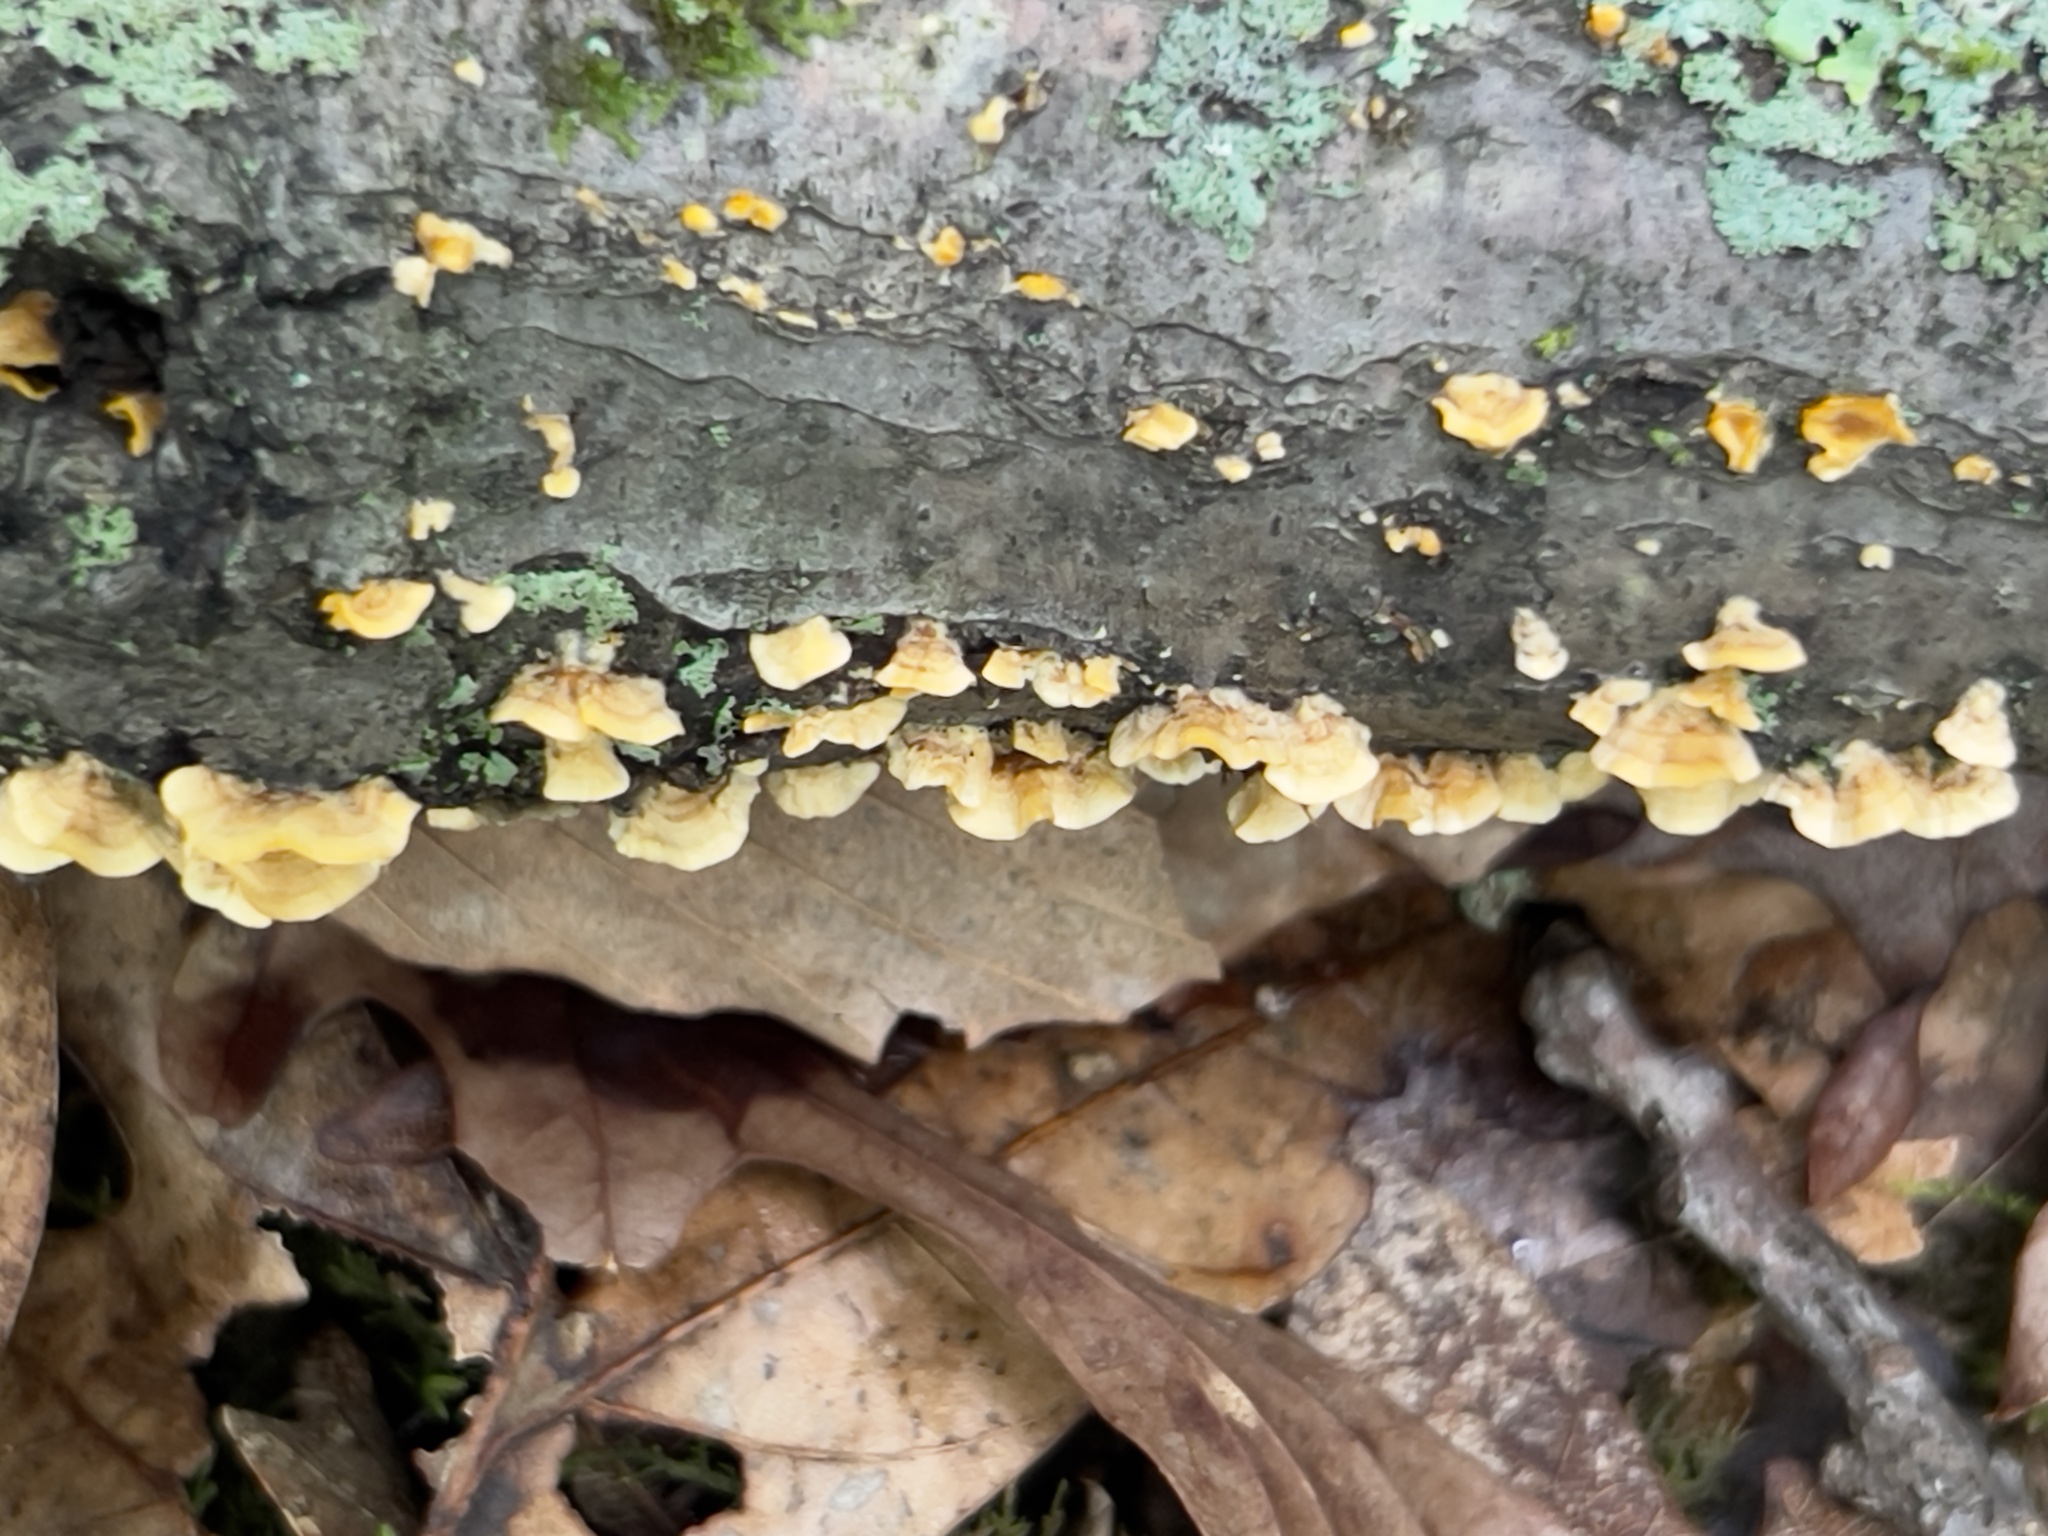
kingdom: Fungi
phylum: Basidiomycota
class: Agaricomycetes
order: Russulales
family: Stereaceae
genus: Stereum
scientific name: Stereum complicatum
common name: Crowded parchment
